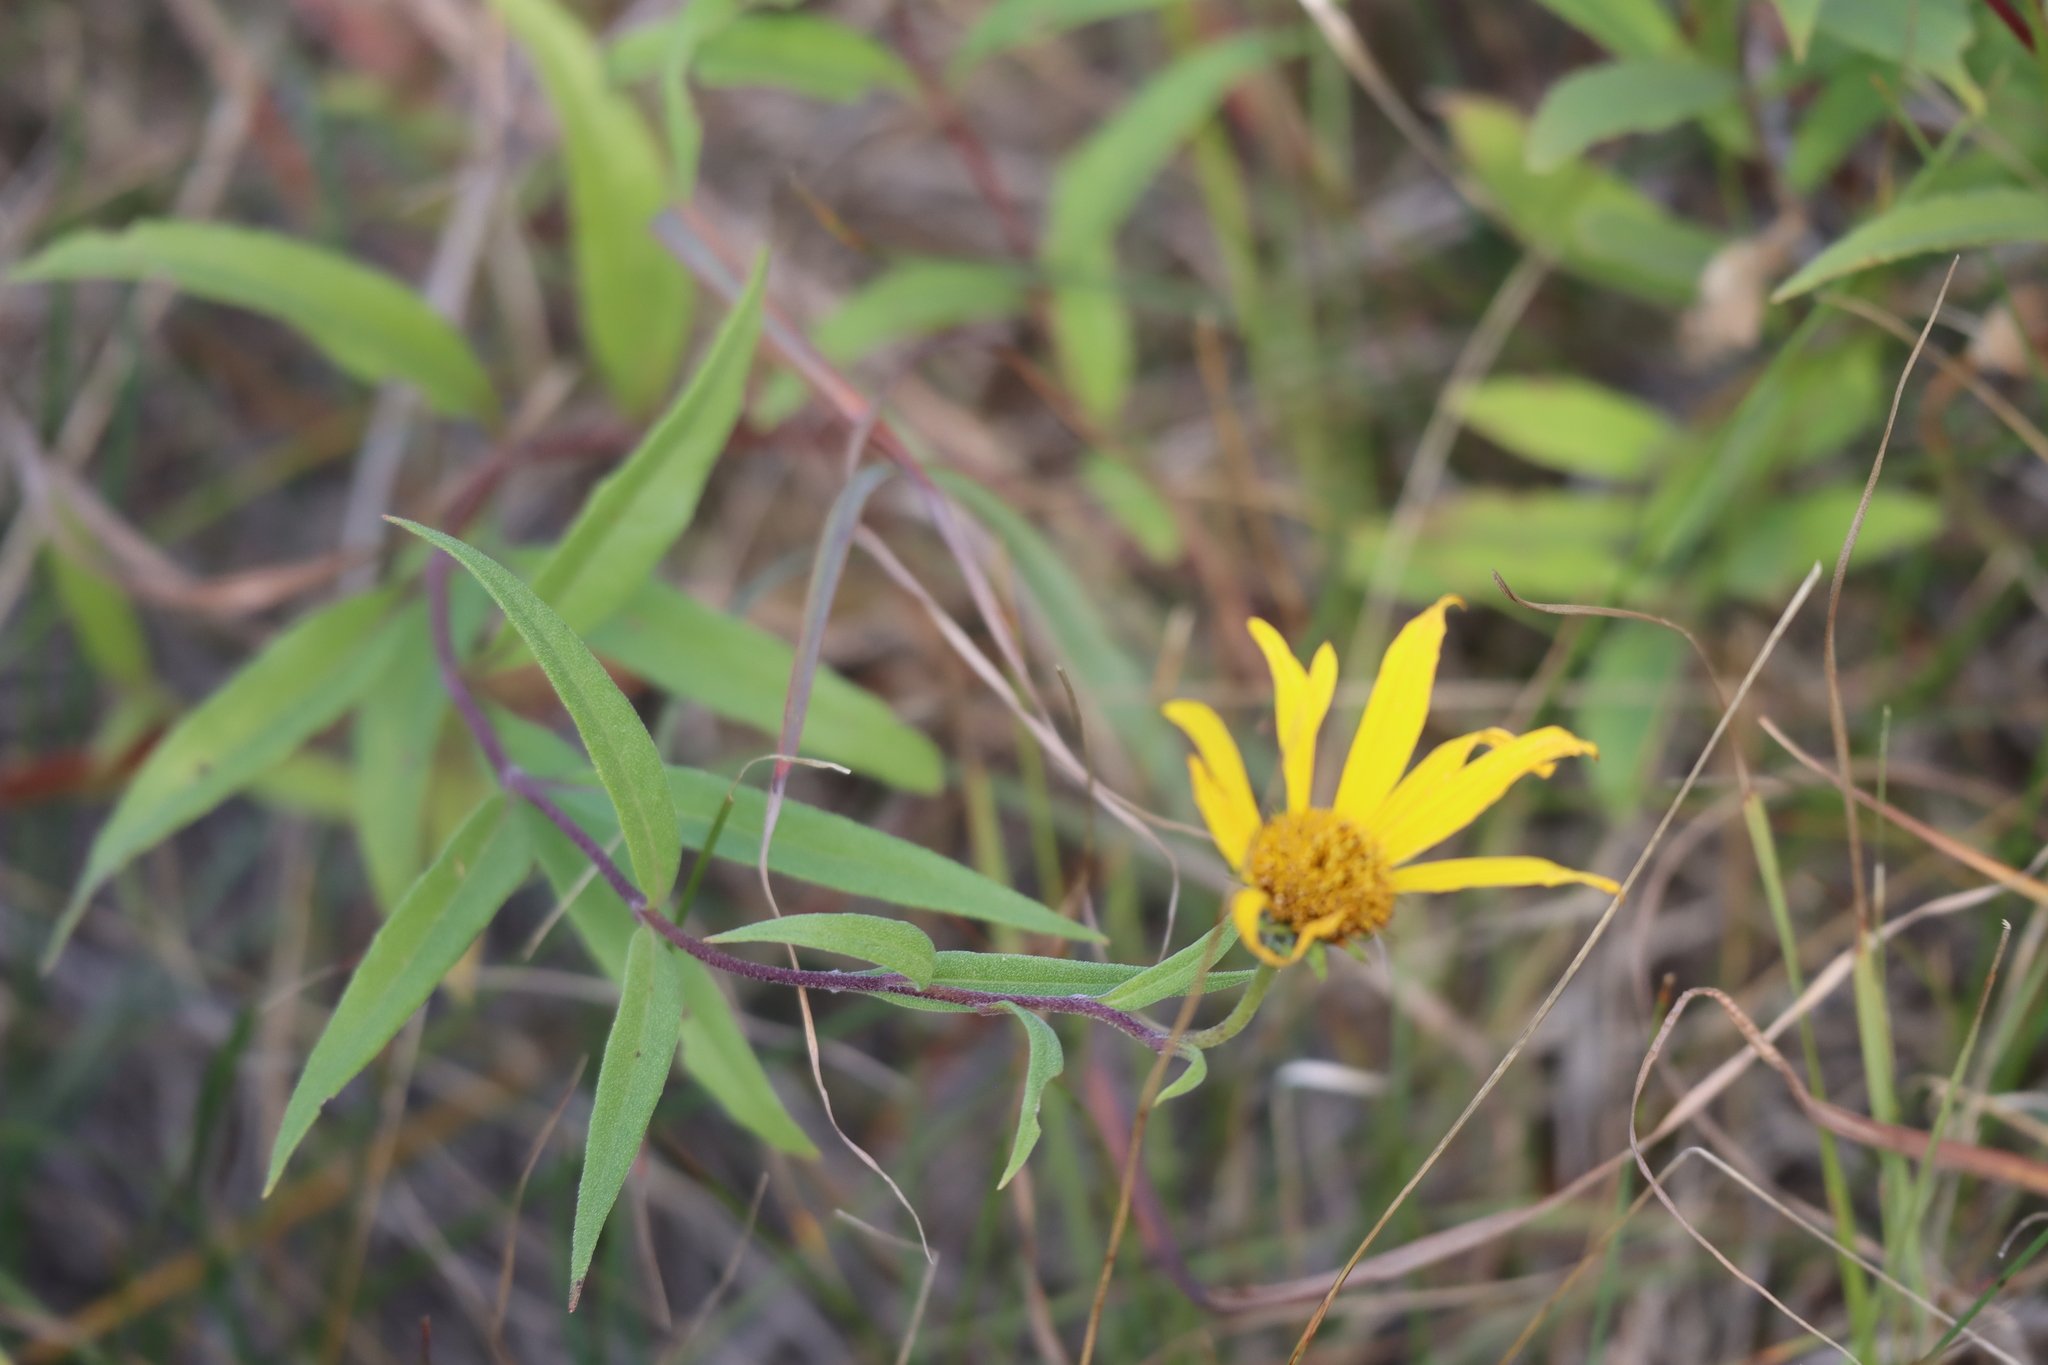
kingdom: Plantae
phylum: Tracheophyta
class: Magnoliopsida
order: Asterales
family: Asteraceae
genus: Helianthus
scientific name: Helianthus nuttallii
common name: Nuttall's sunflower
